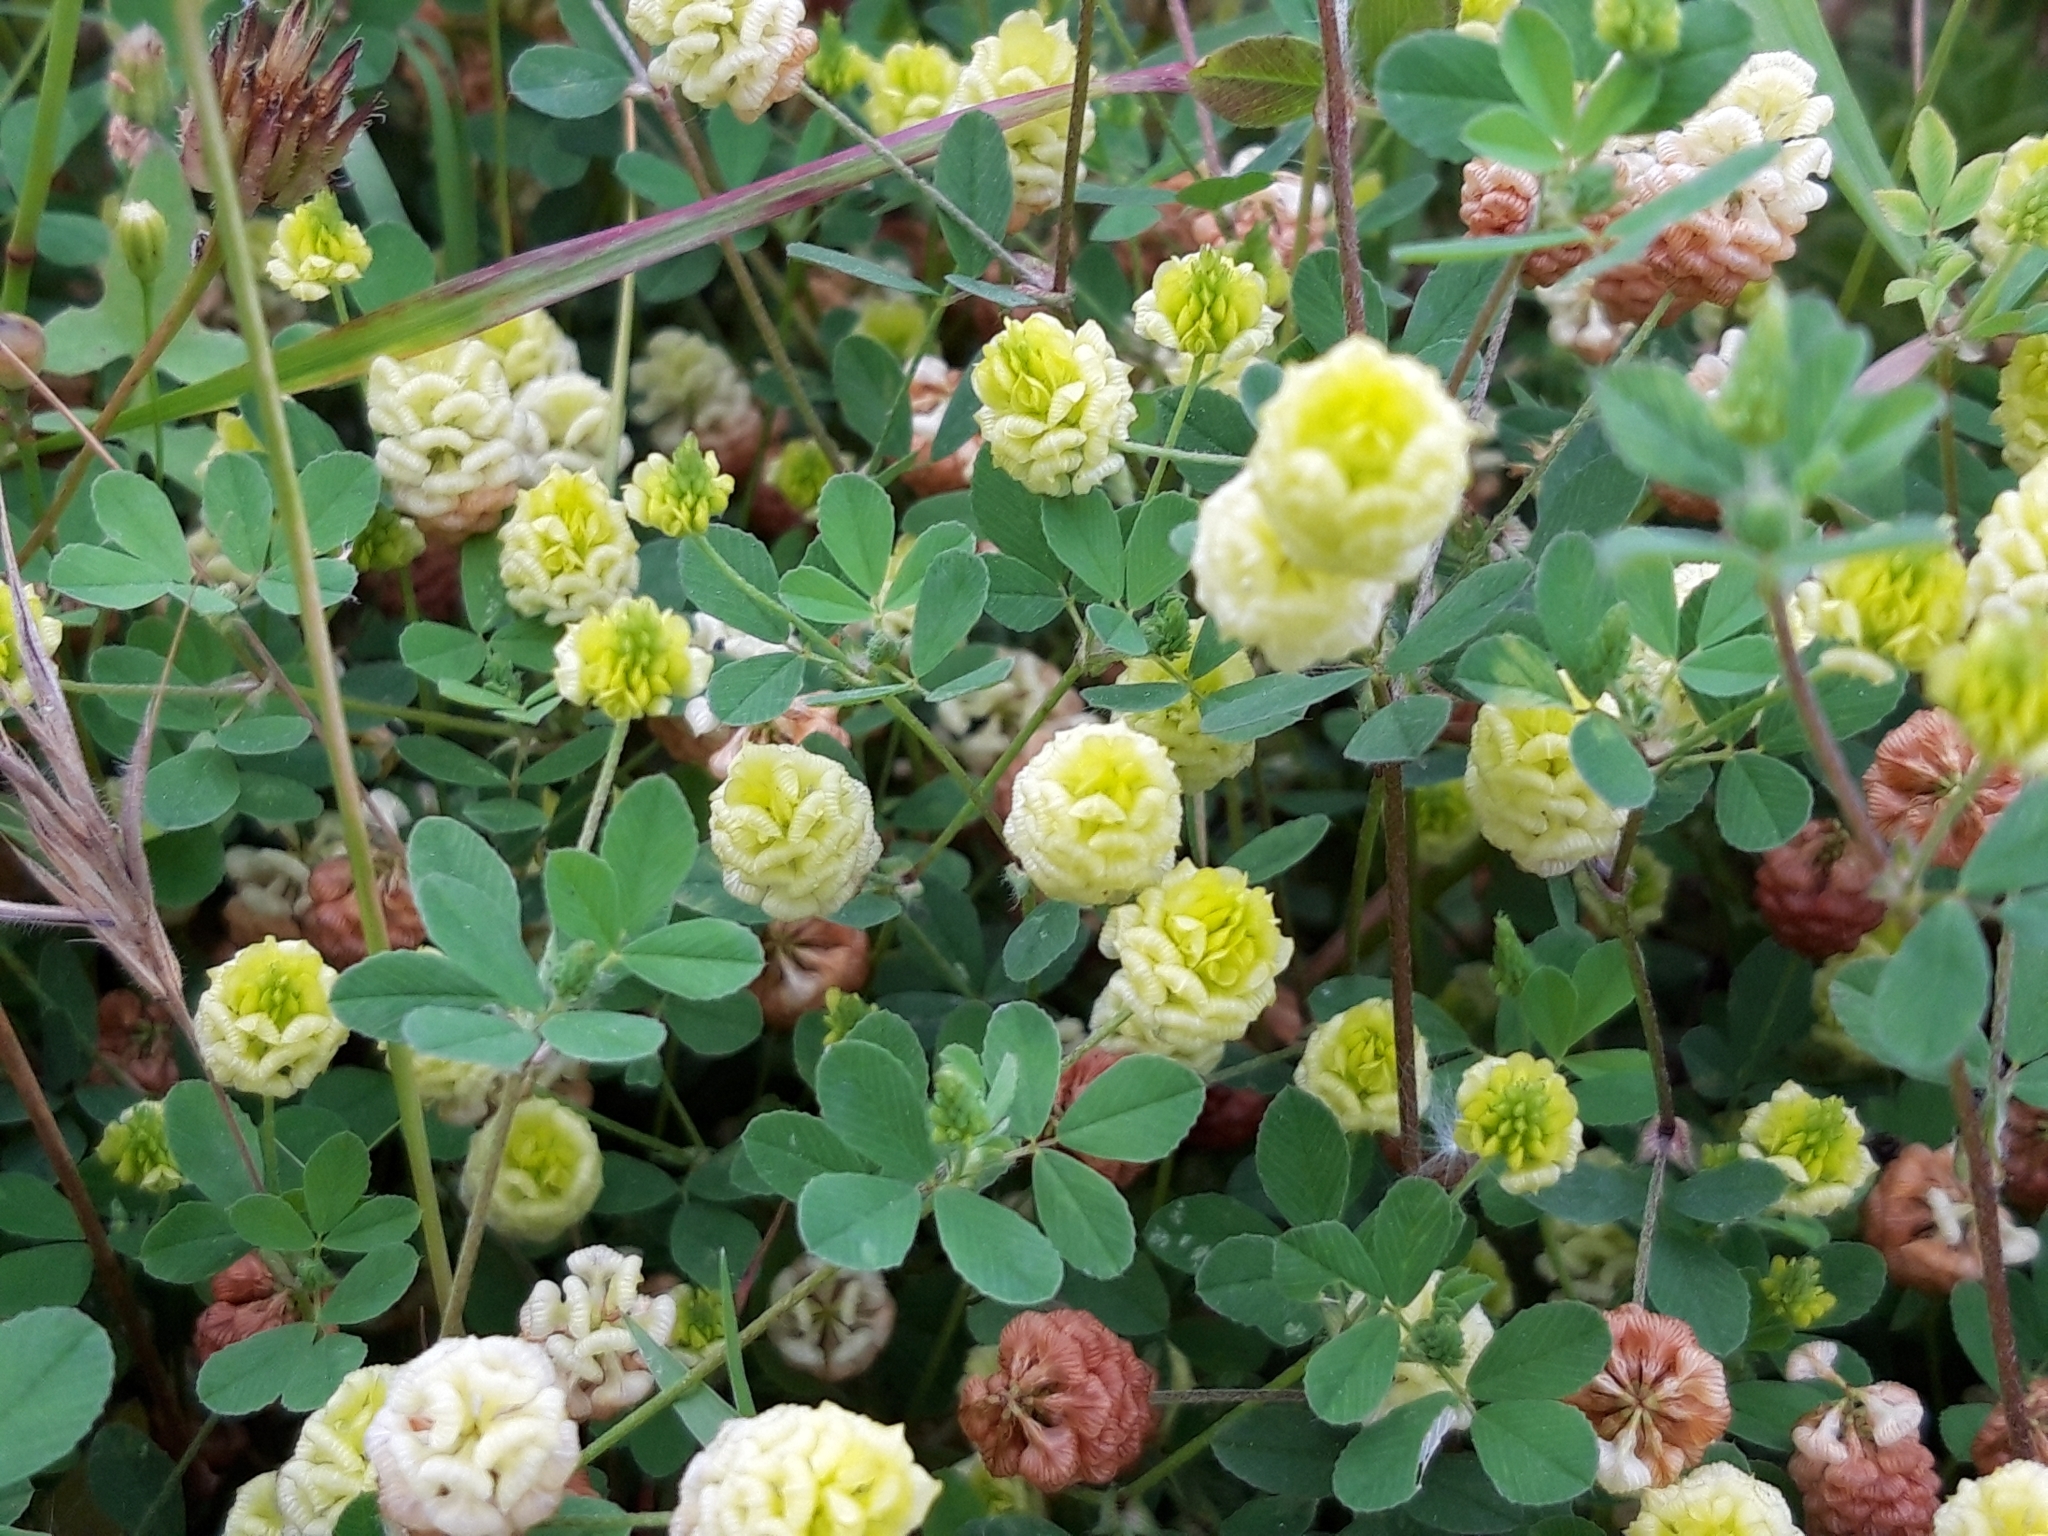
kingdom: Plantae
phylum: Tracheophyta
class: Magnoliopsida
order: Fabales
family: Fabaceae
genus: Trifolium
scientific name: Trifolium campestre
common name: Field clover
